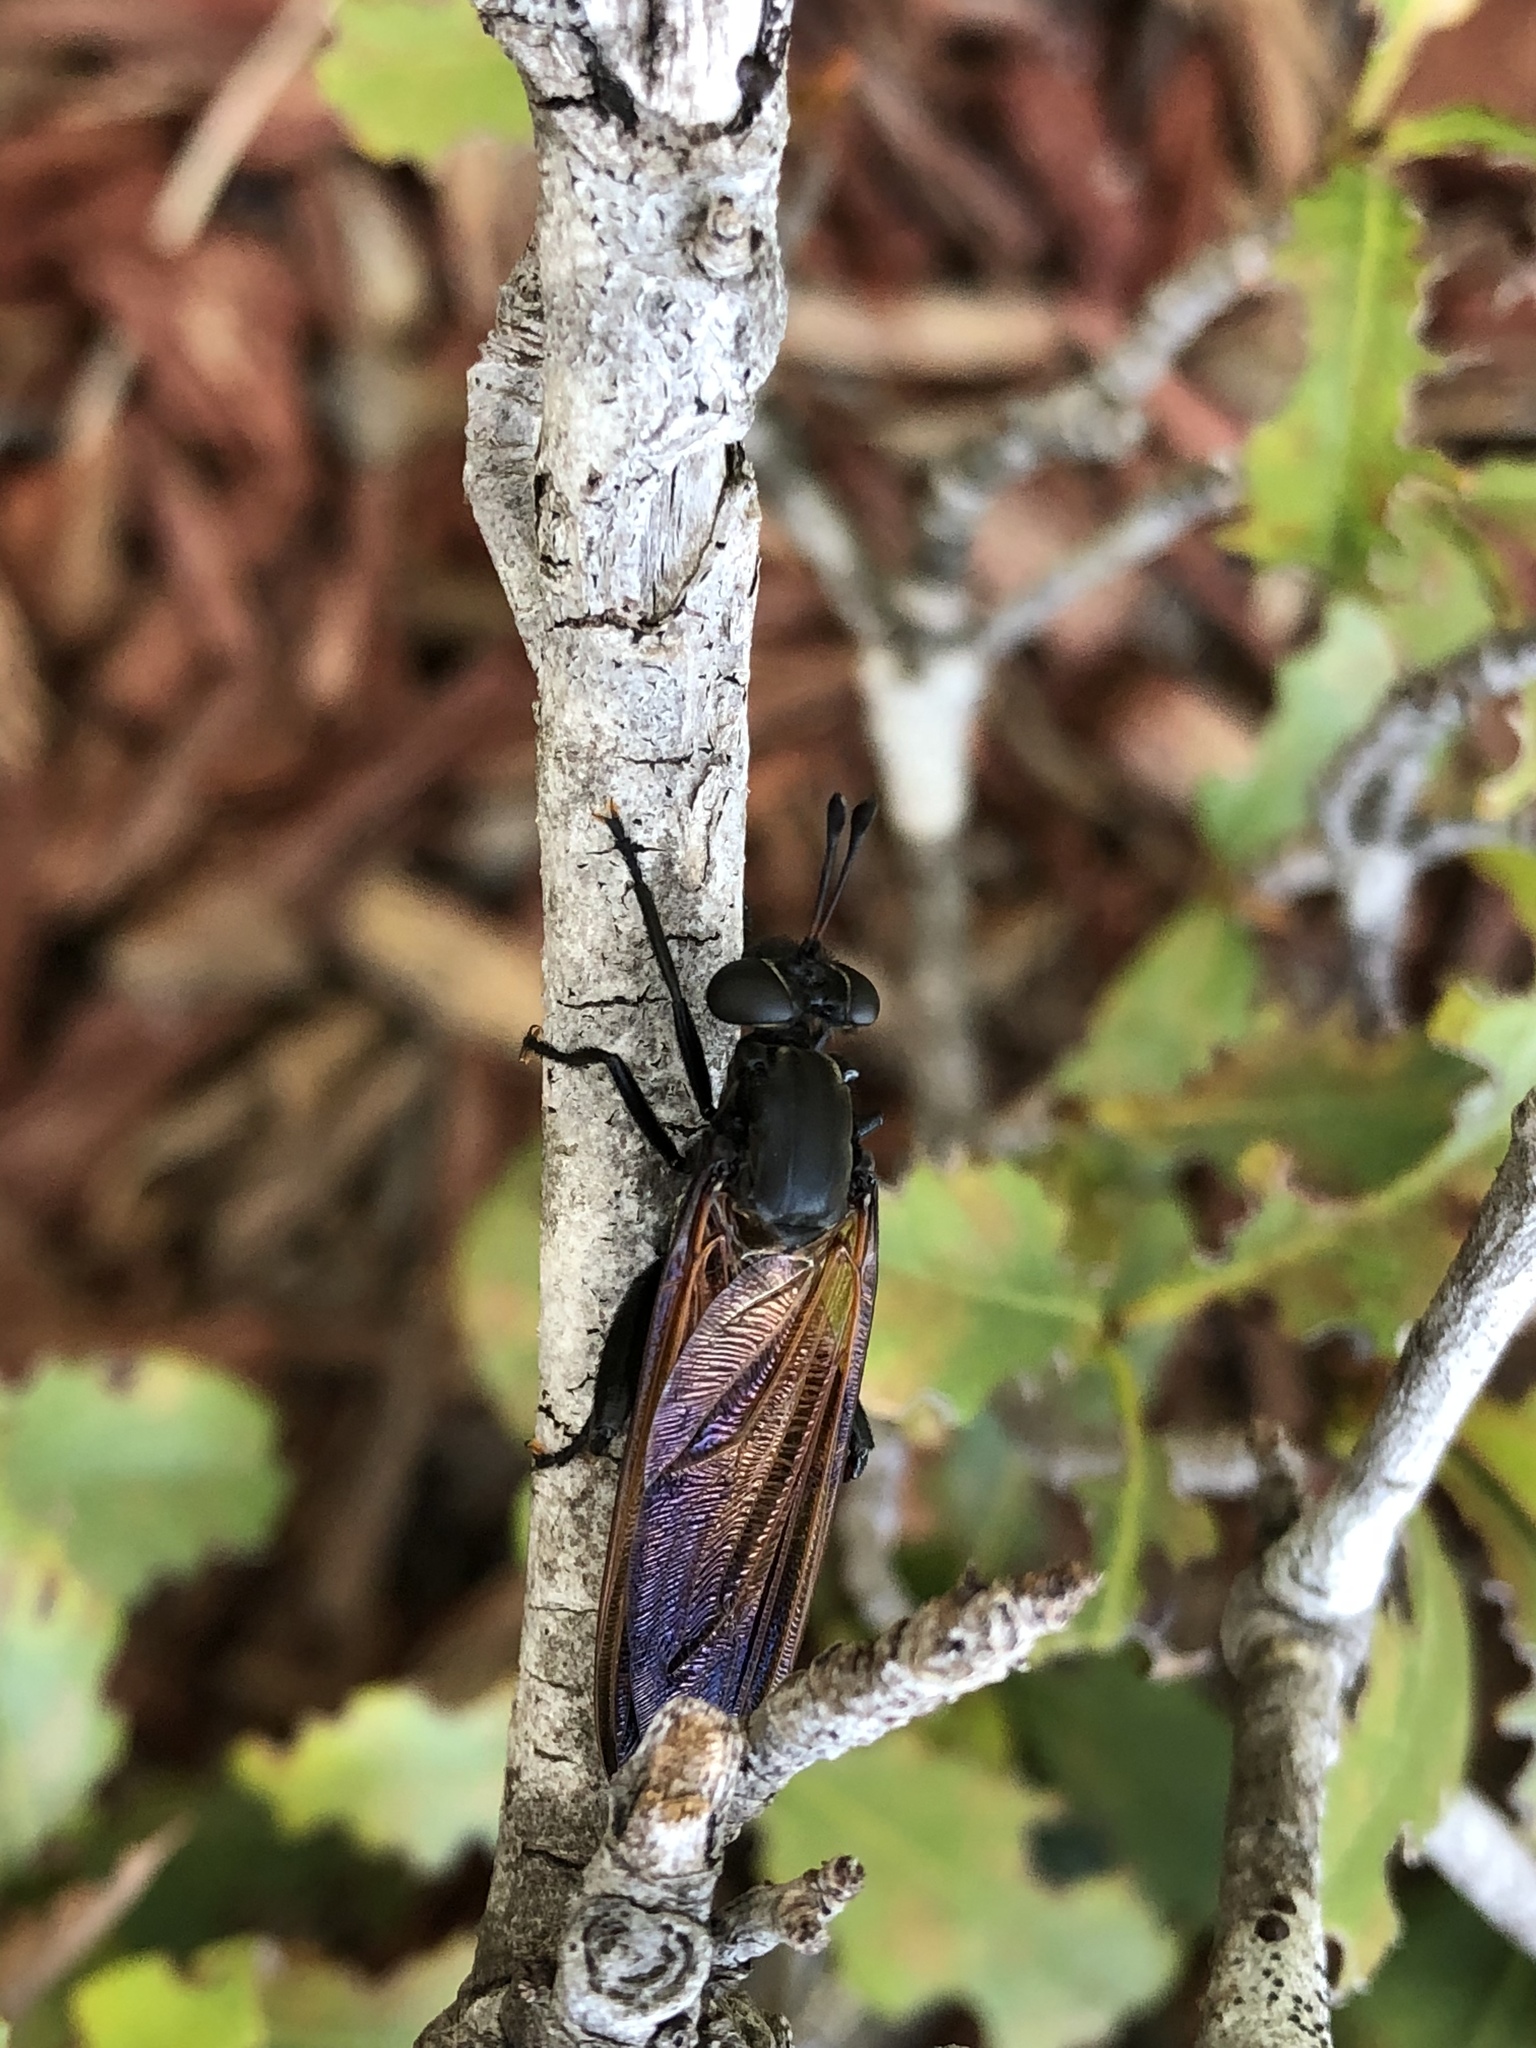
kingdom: Animalia
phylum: Arthropoda
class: Insecta
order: Diptera
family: Mydidae
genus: Mydas
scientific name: Mydas maculiventris
